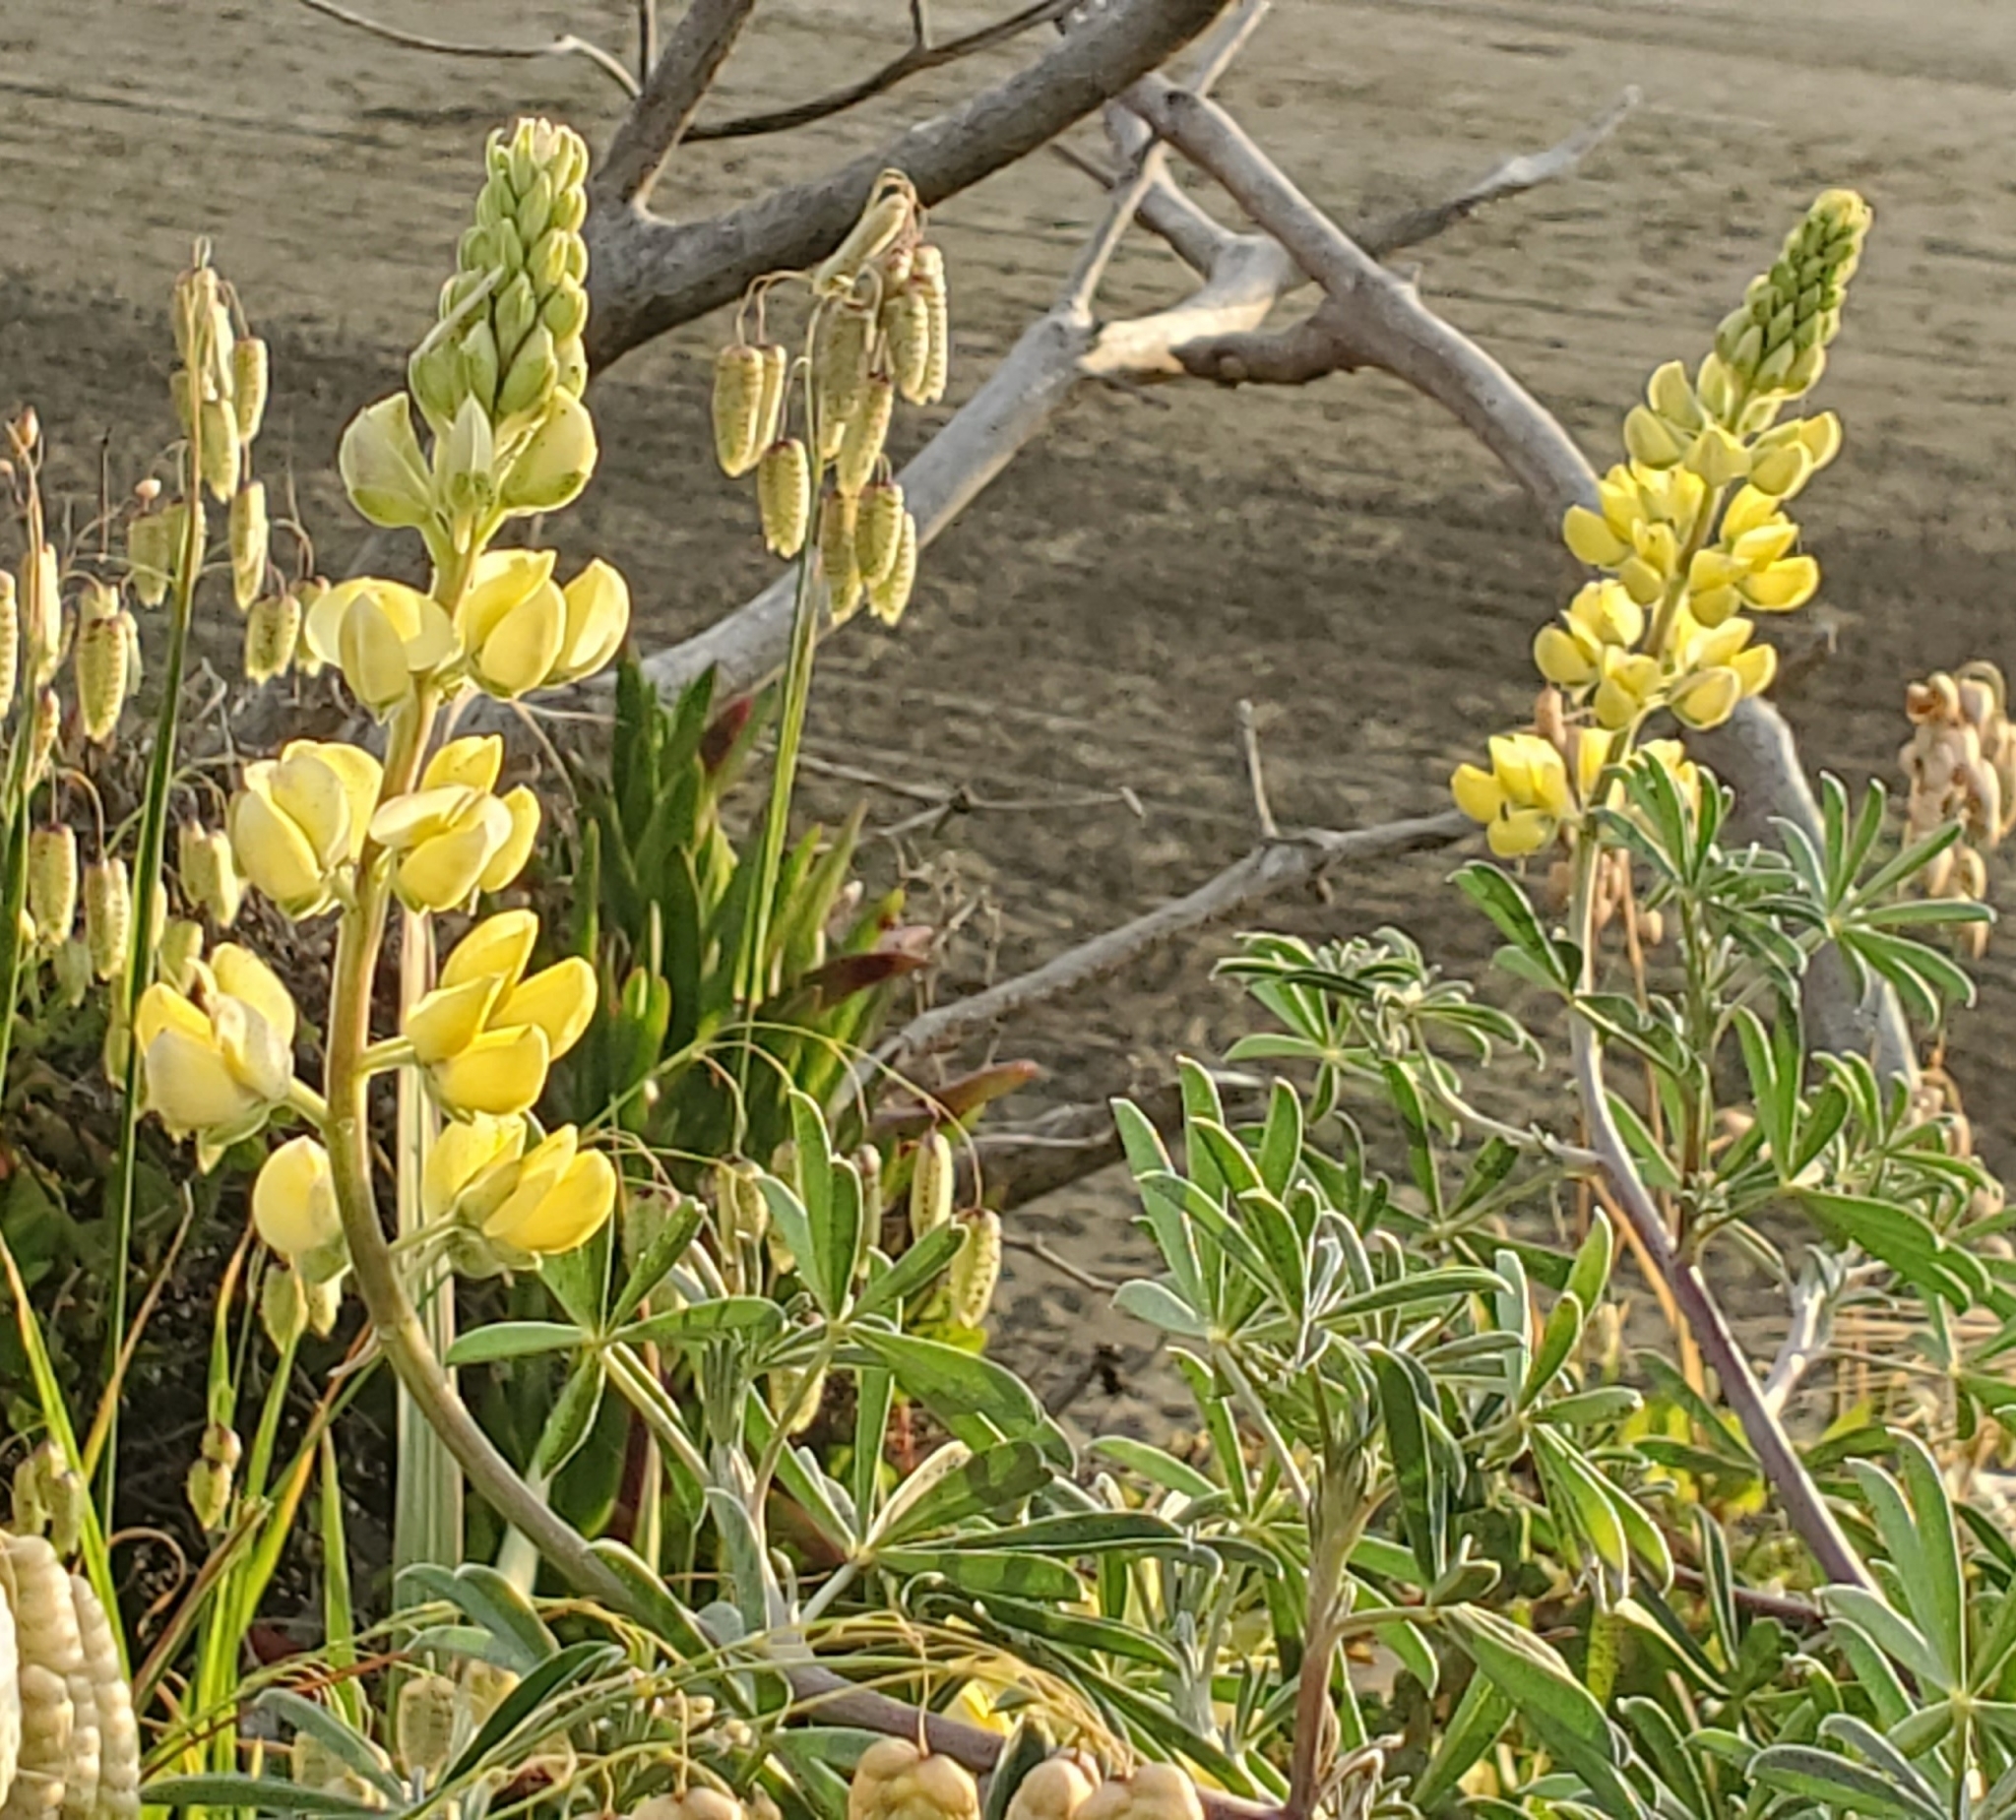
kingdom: Plantae
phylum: Tracheophyta
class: Magnoliopsida
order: Fabales
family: Fabaceae
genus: Lupinus
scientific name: Lupinus arboreus
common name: Yellow bush lupine
